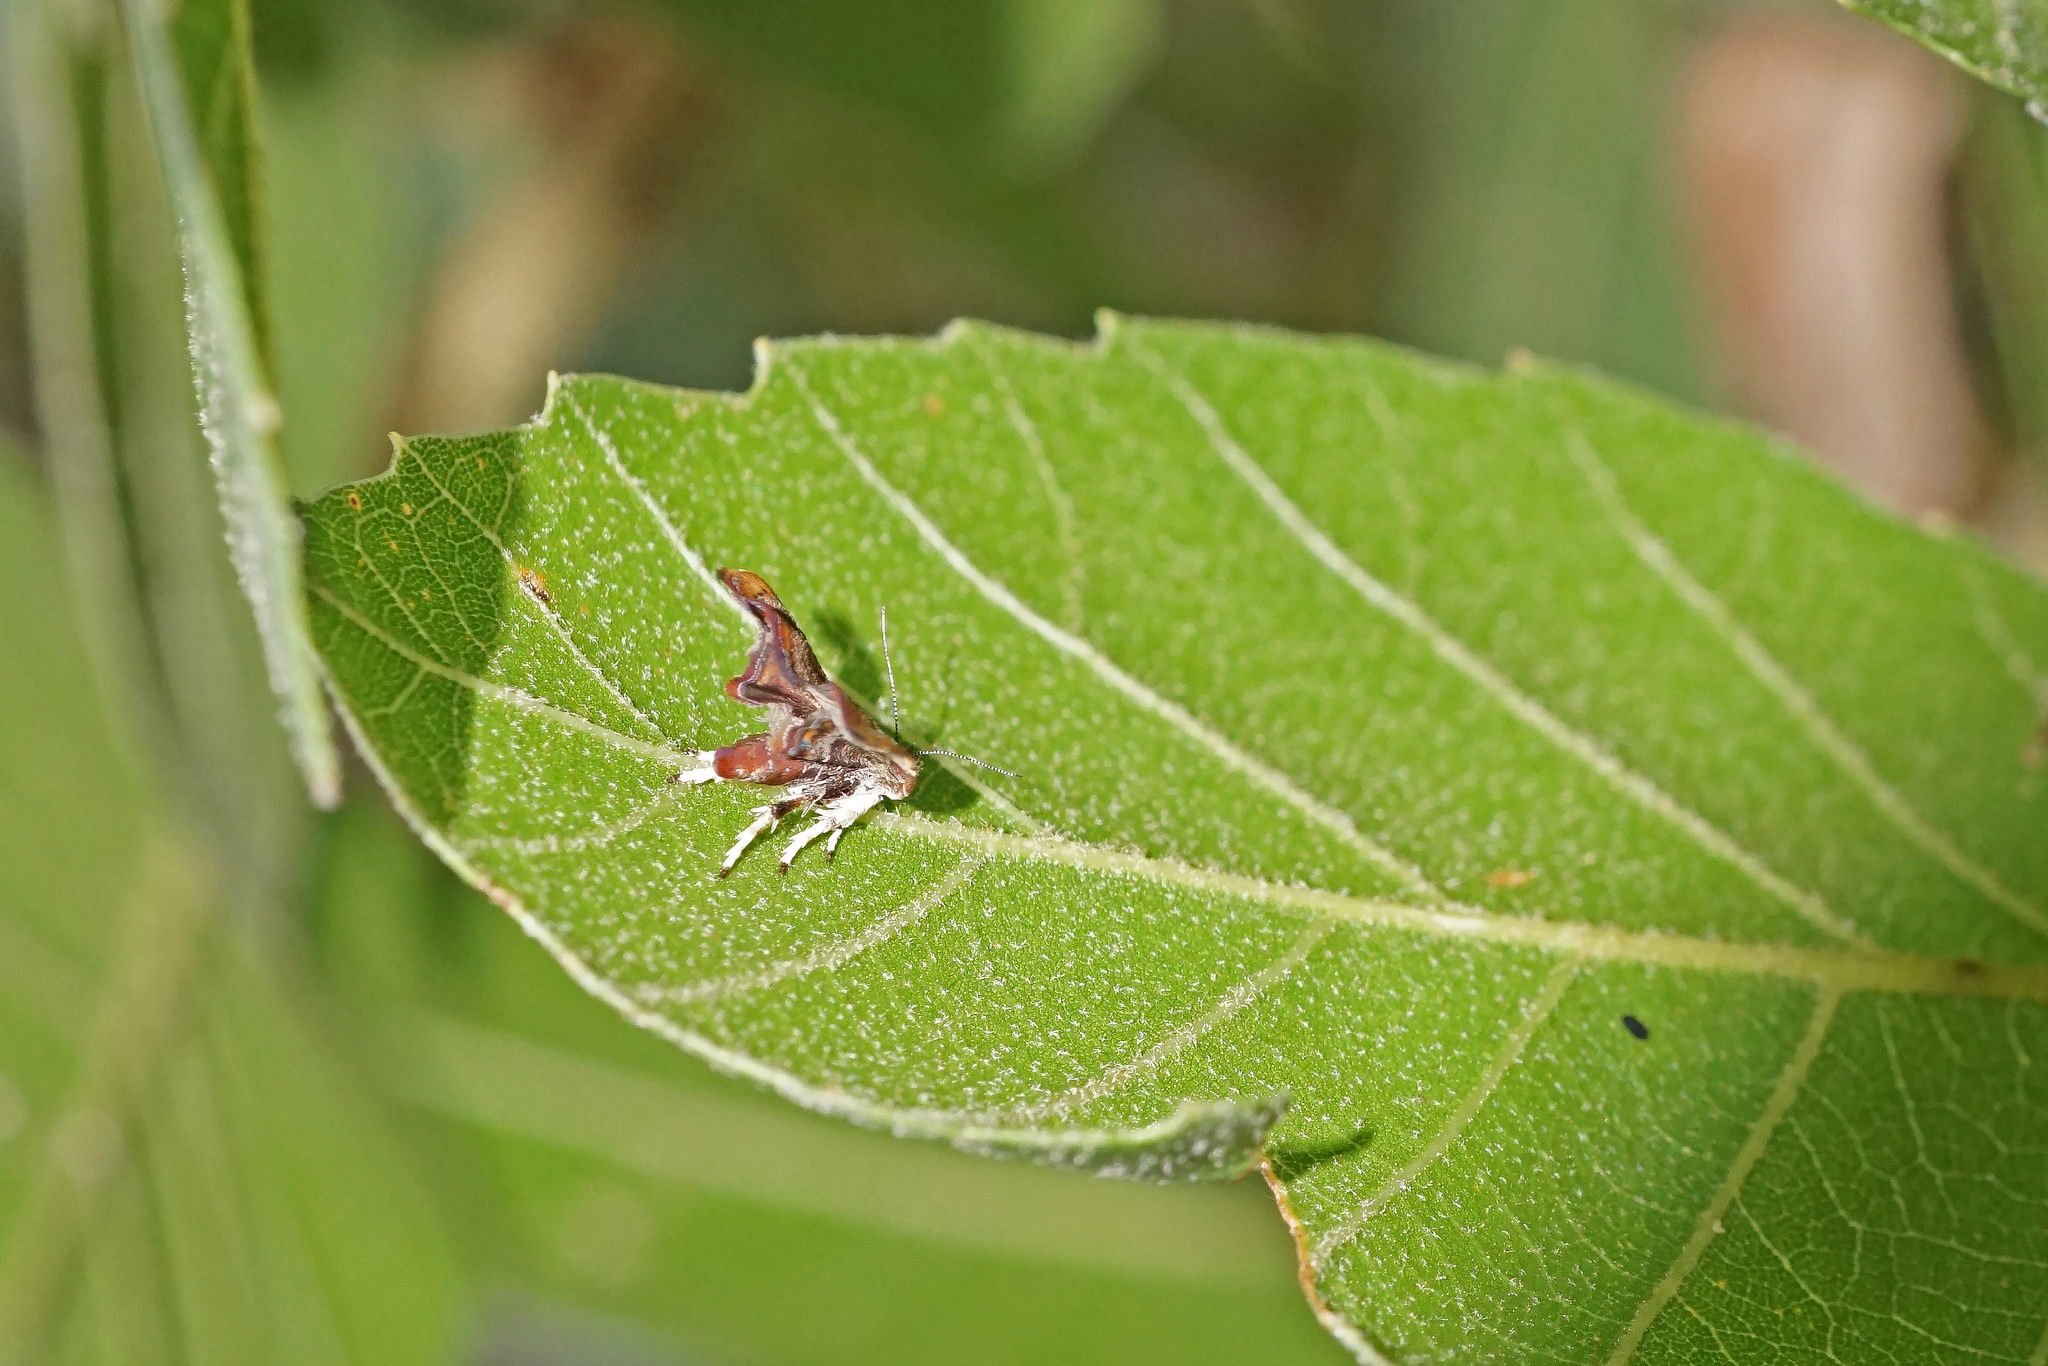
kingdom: Animalia
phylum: Arthropoda
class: Insecta
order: Lepidoptera
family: Choreutidae
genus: Anthophila
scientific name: Anthophila nemorana
